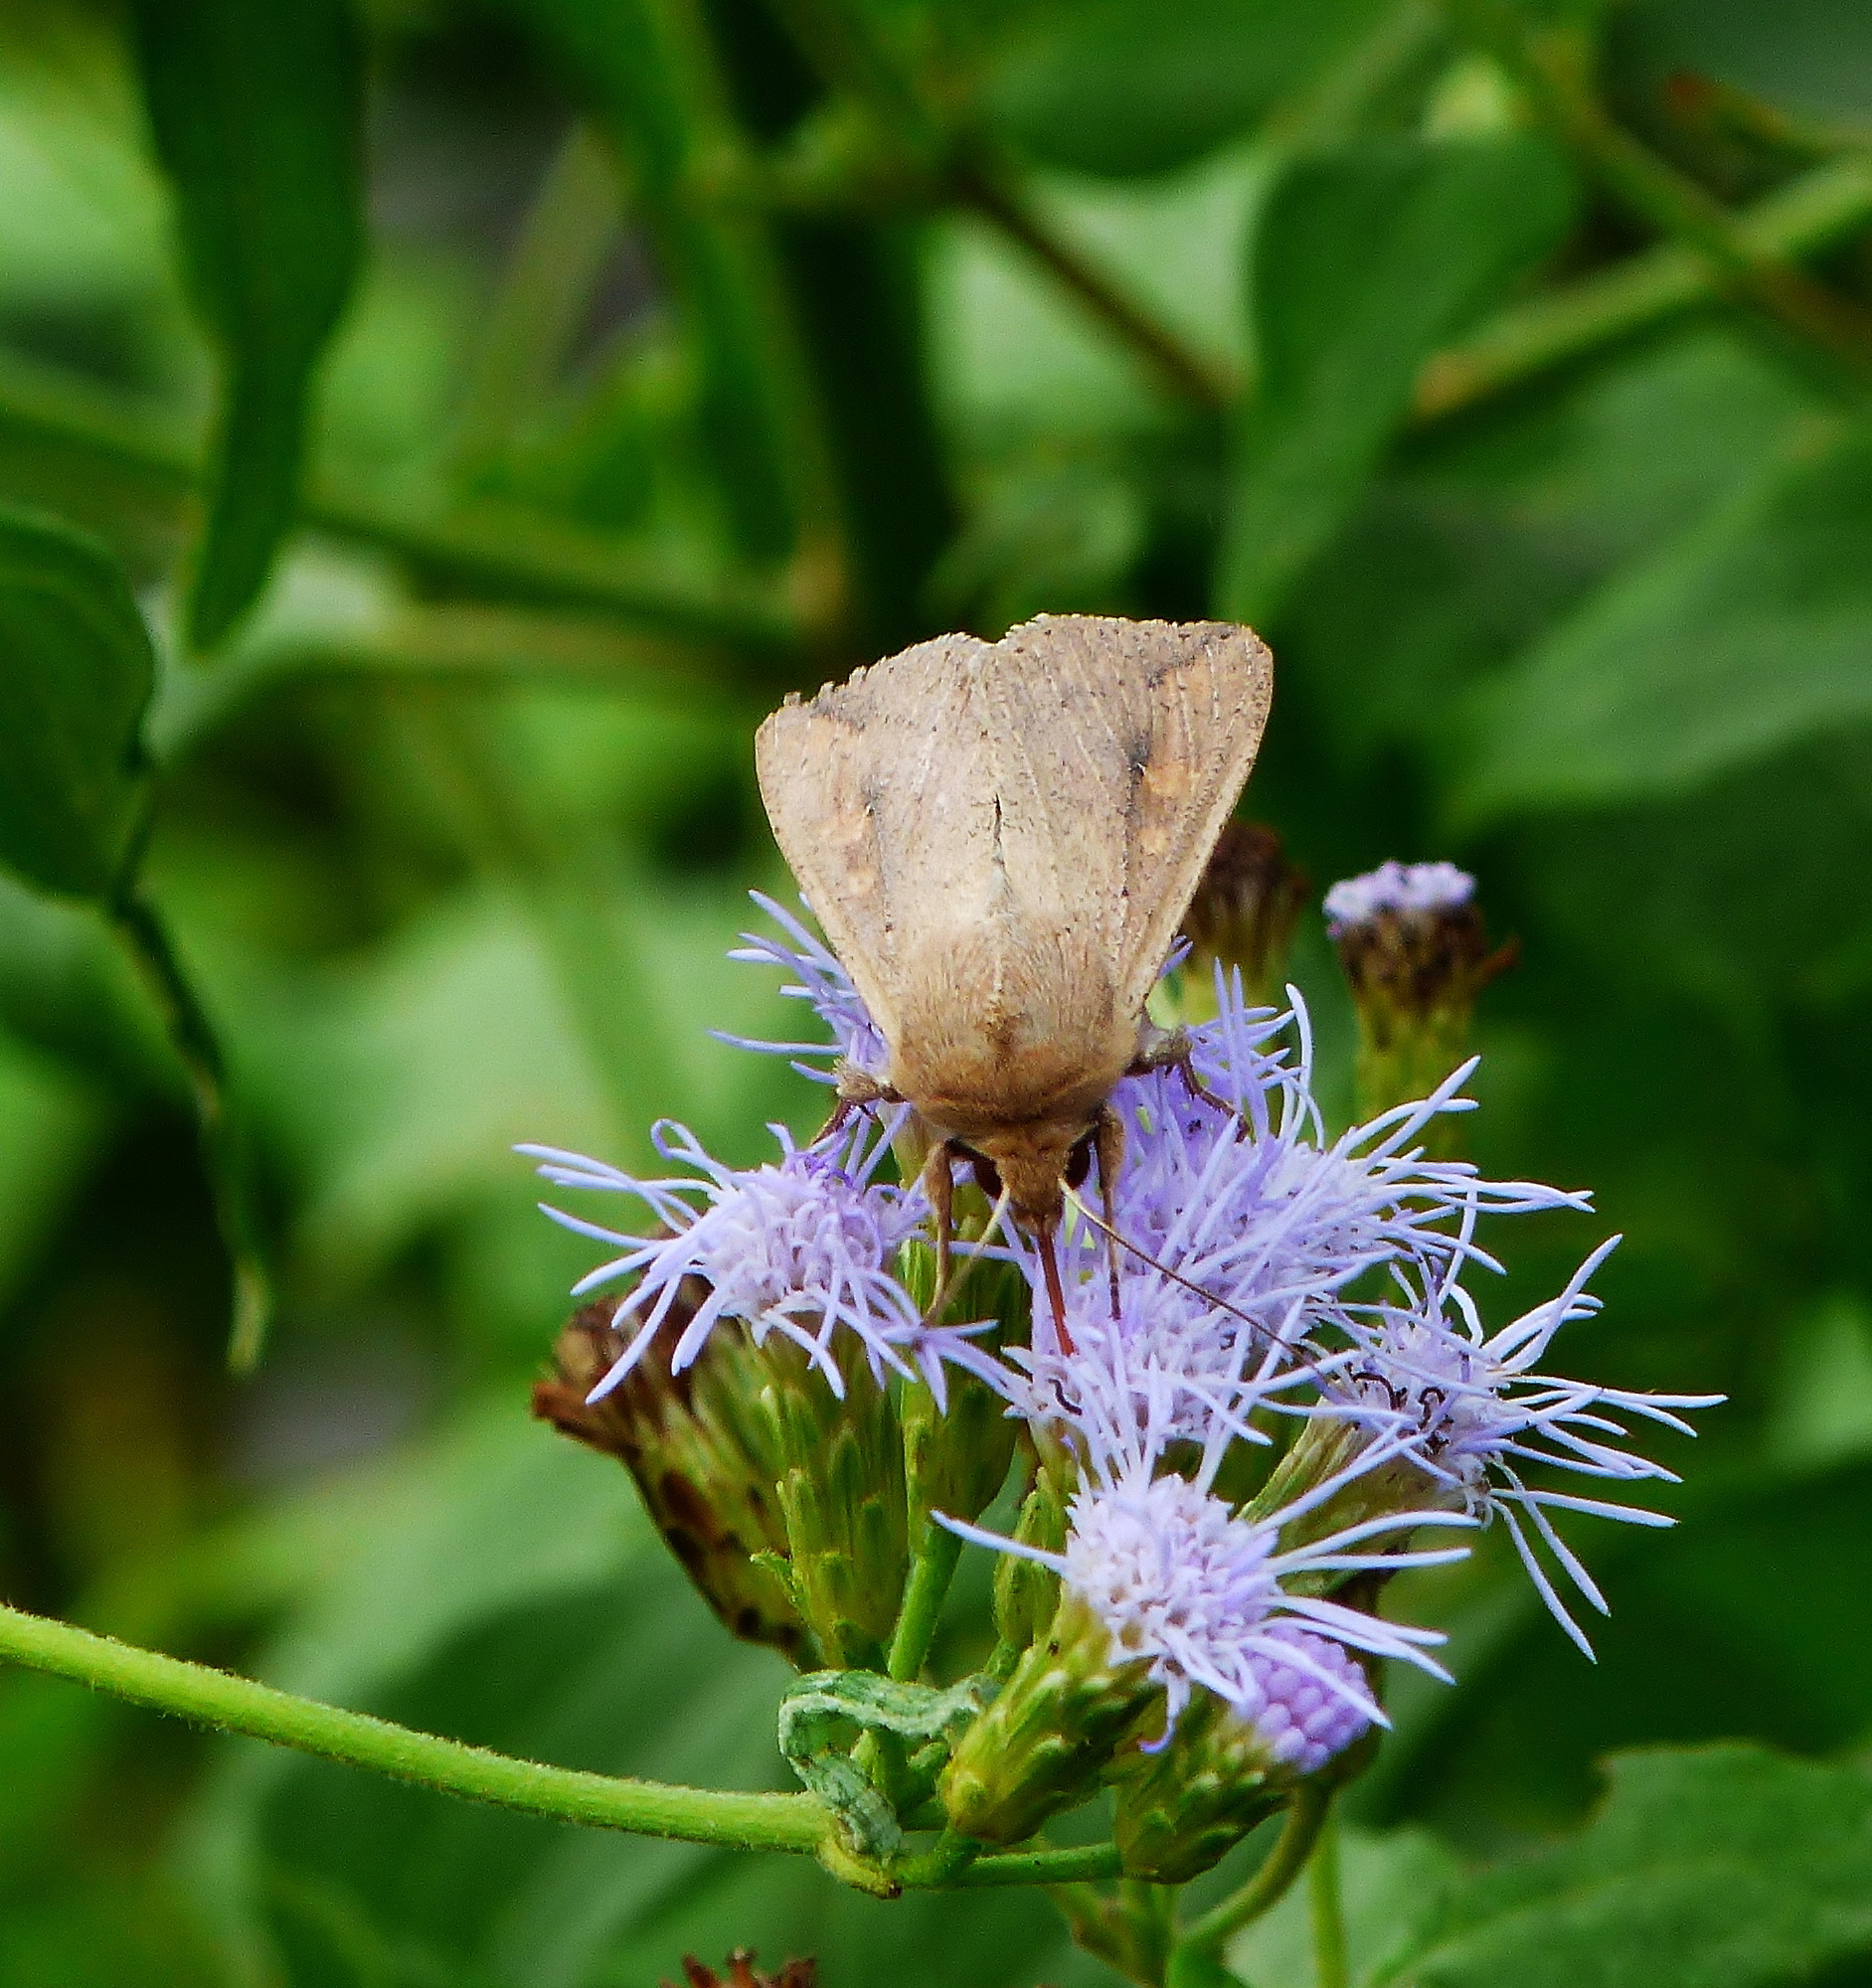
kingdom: Animalia
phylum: Arthropoda
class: Insecta
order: Lepidoptera
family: Noctuidae
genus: Mythimna
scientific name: Mythimna unipuncta
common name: White-speck
